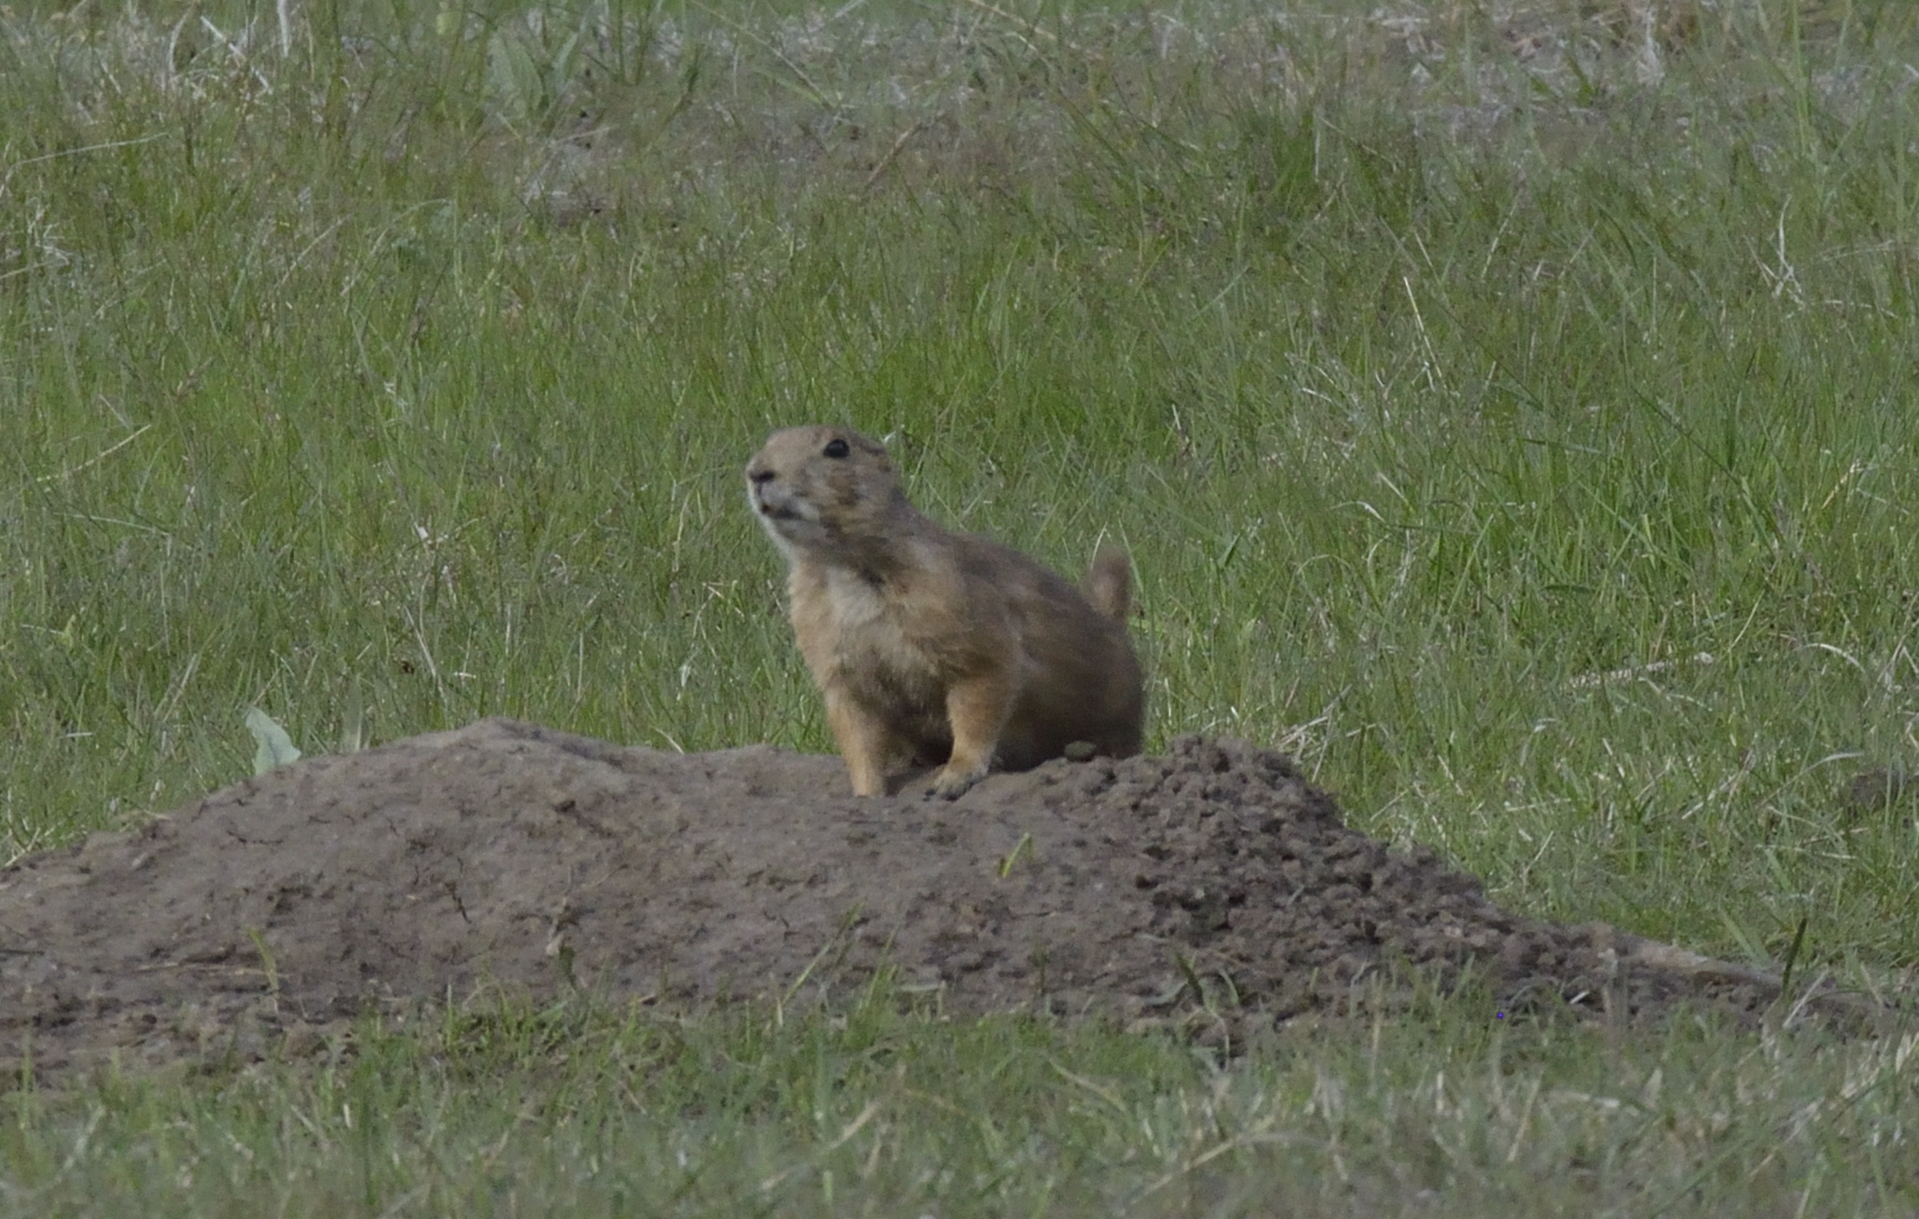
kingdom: Animalia
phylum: Chordata
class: Mammalia
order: Rodentia
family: Sciuridae
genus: Cynomys
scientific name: Cynomys ludovicianus
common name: Black-tailed prairie dog
